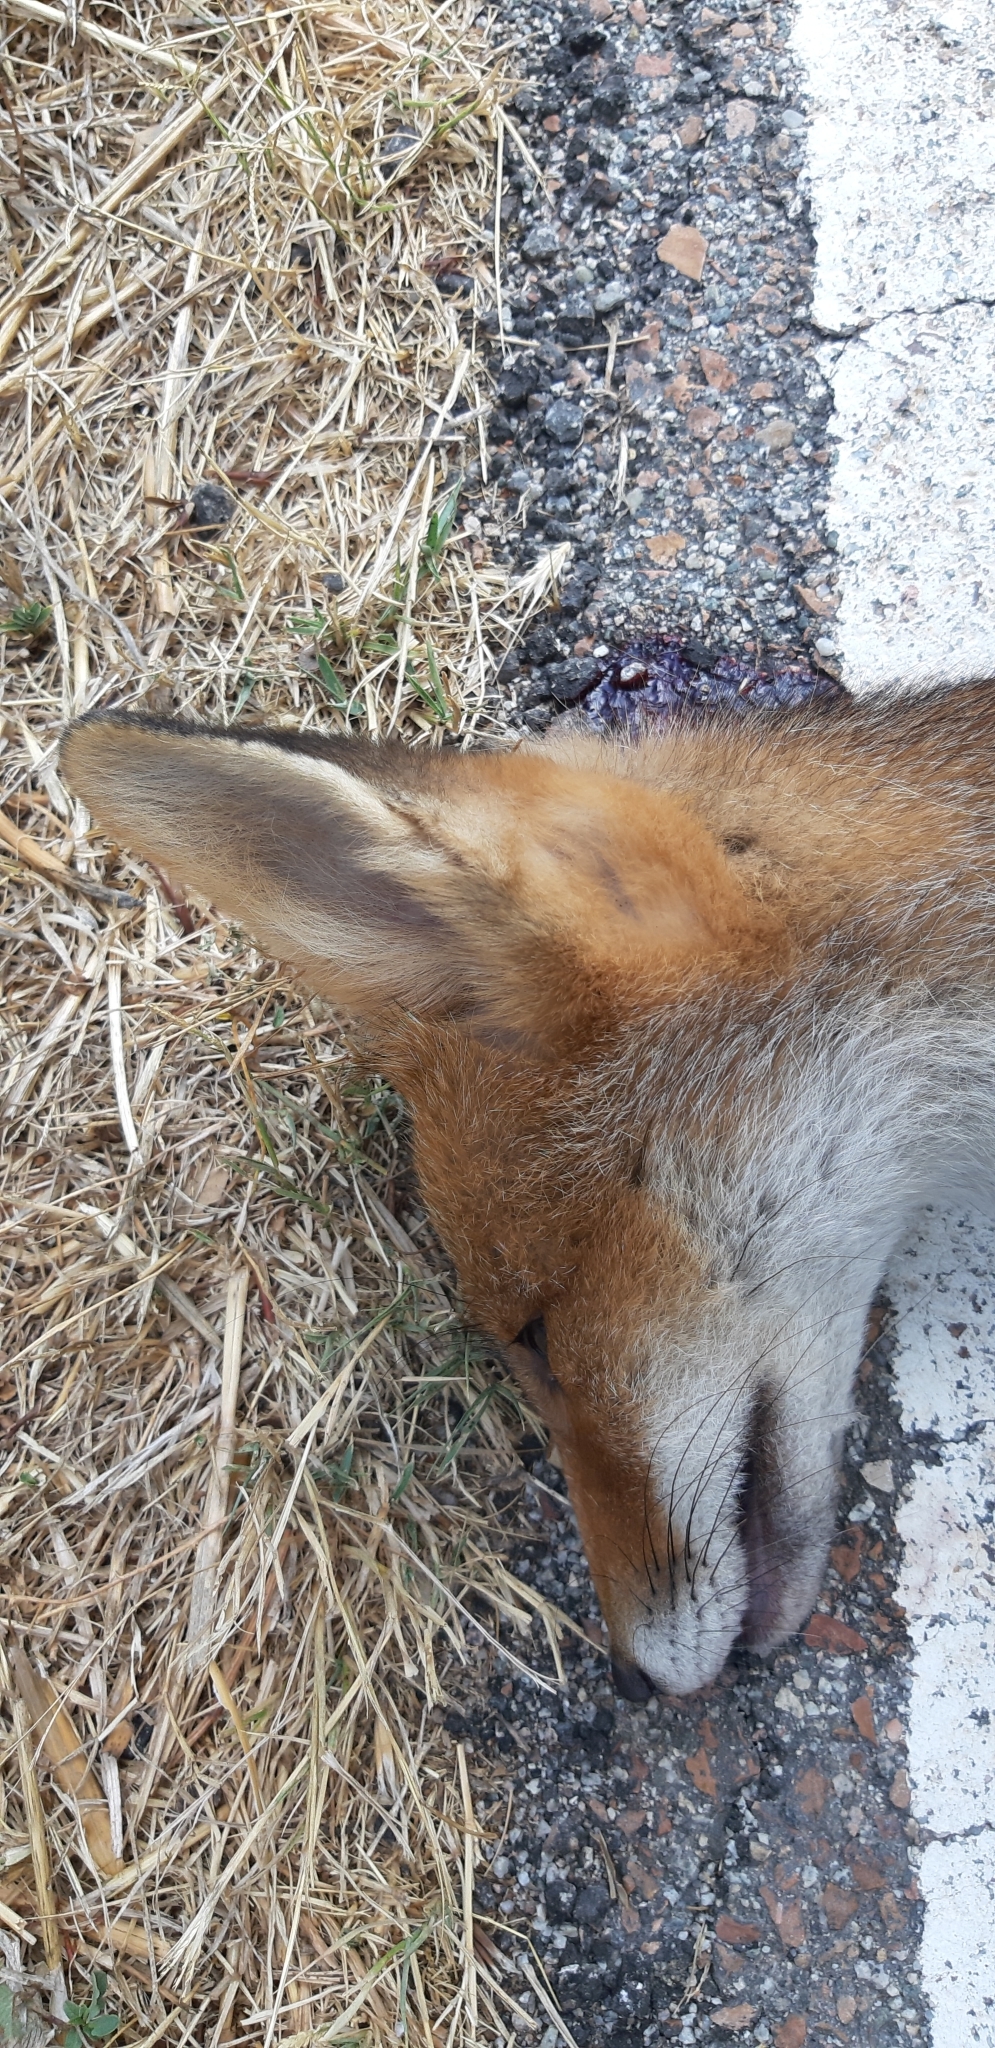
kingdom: Animalia
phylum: Chordata
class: Mammalia
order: Carnivora
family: Canidae
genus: Vulpes
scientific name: Vulpes vulpes
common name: Red fox
